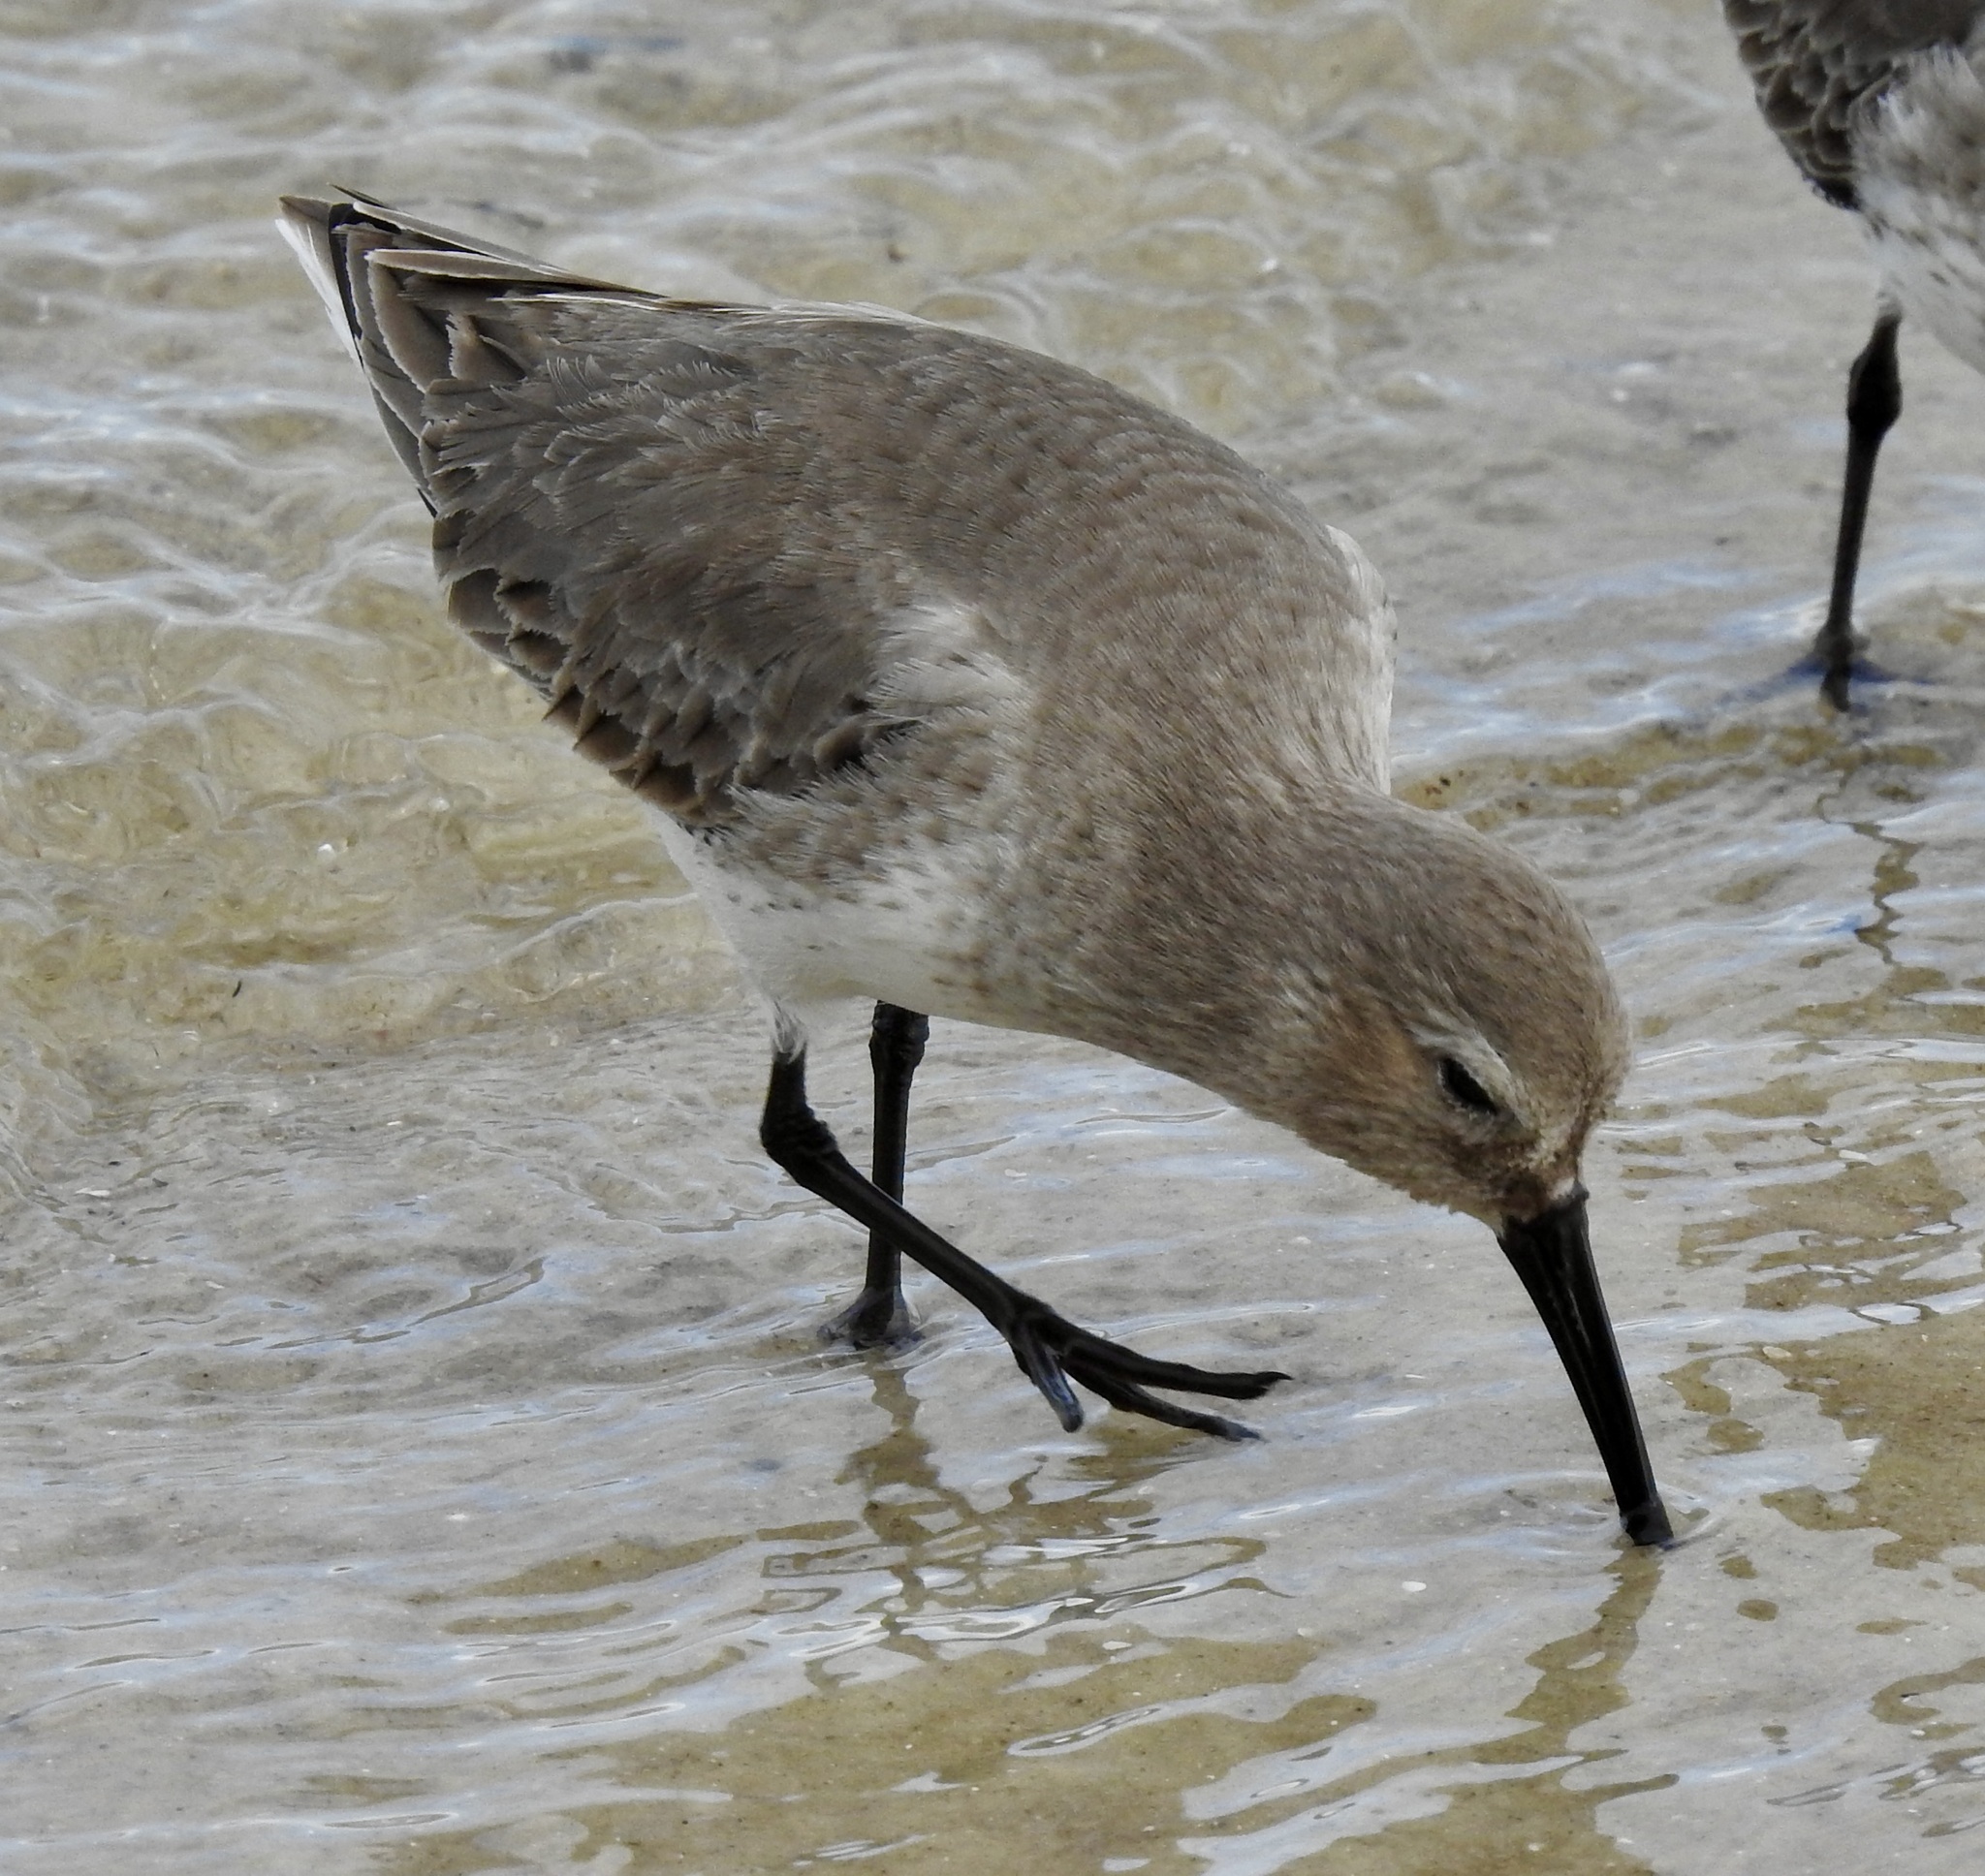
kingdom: Animalia
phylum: Chordata
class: Aves
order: Charadriiformes
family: Scolopacidae
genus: Calidris
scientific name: Calidris alpina
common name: Dunlin
